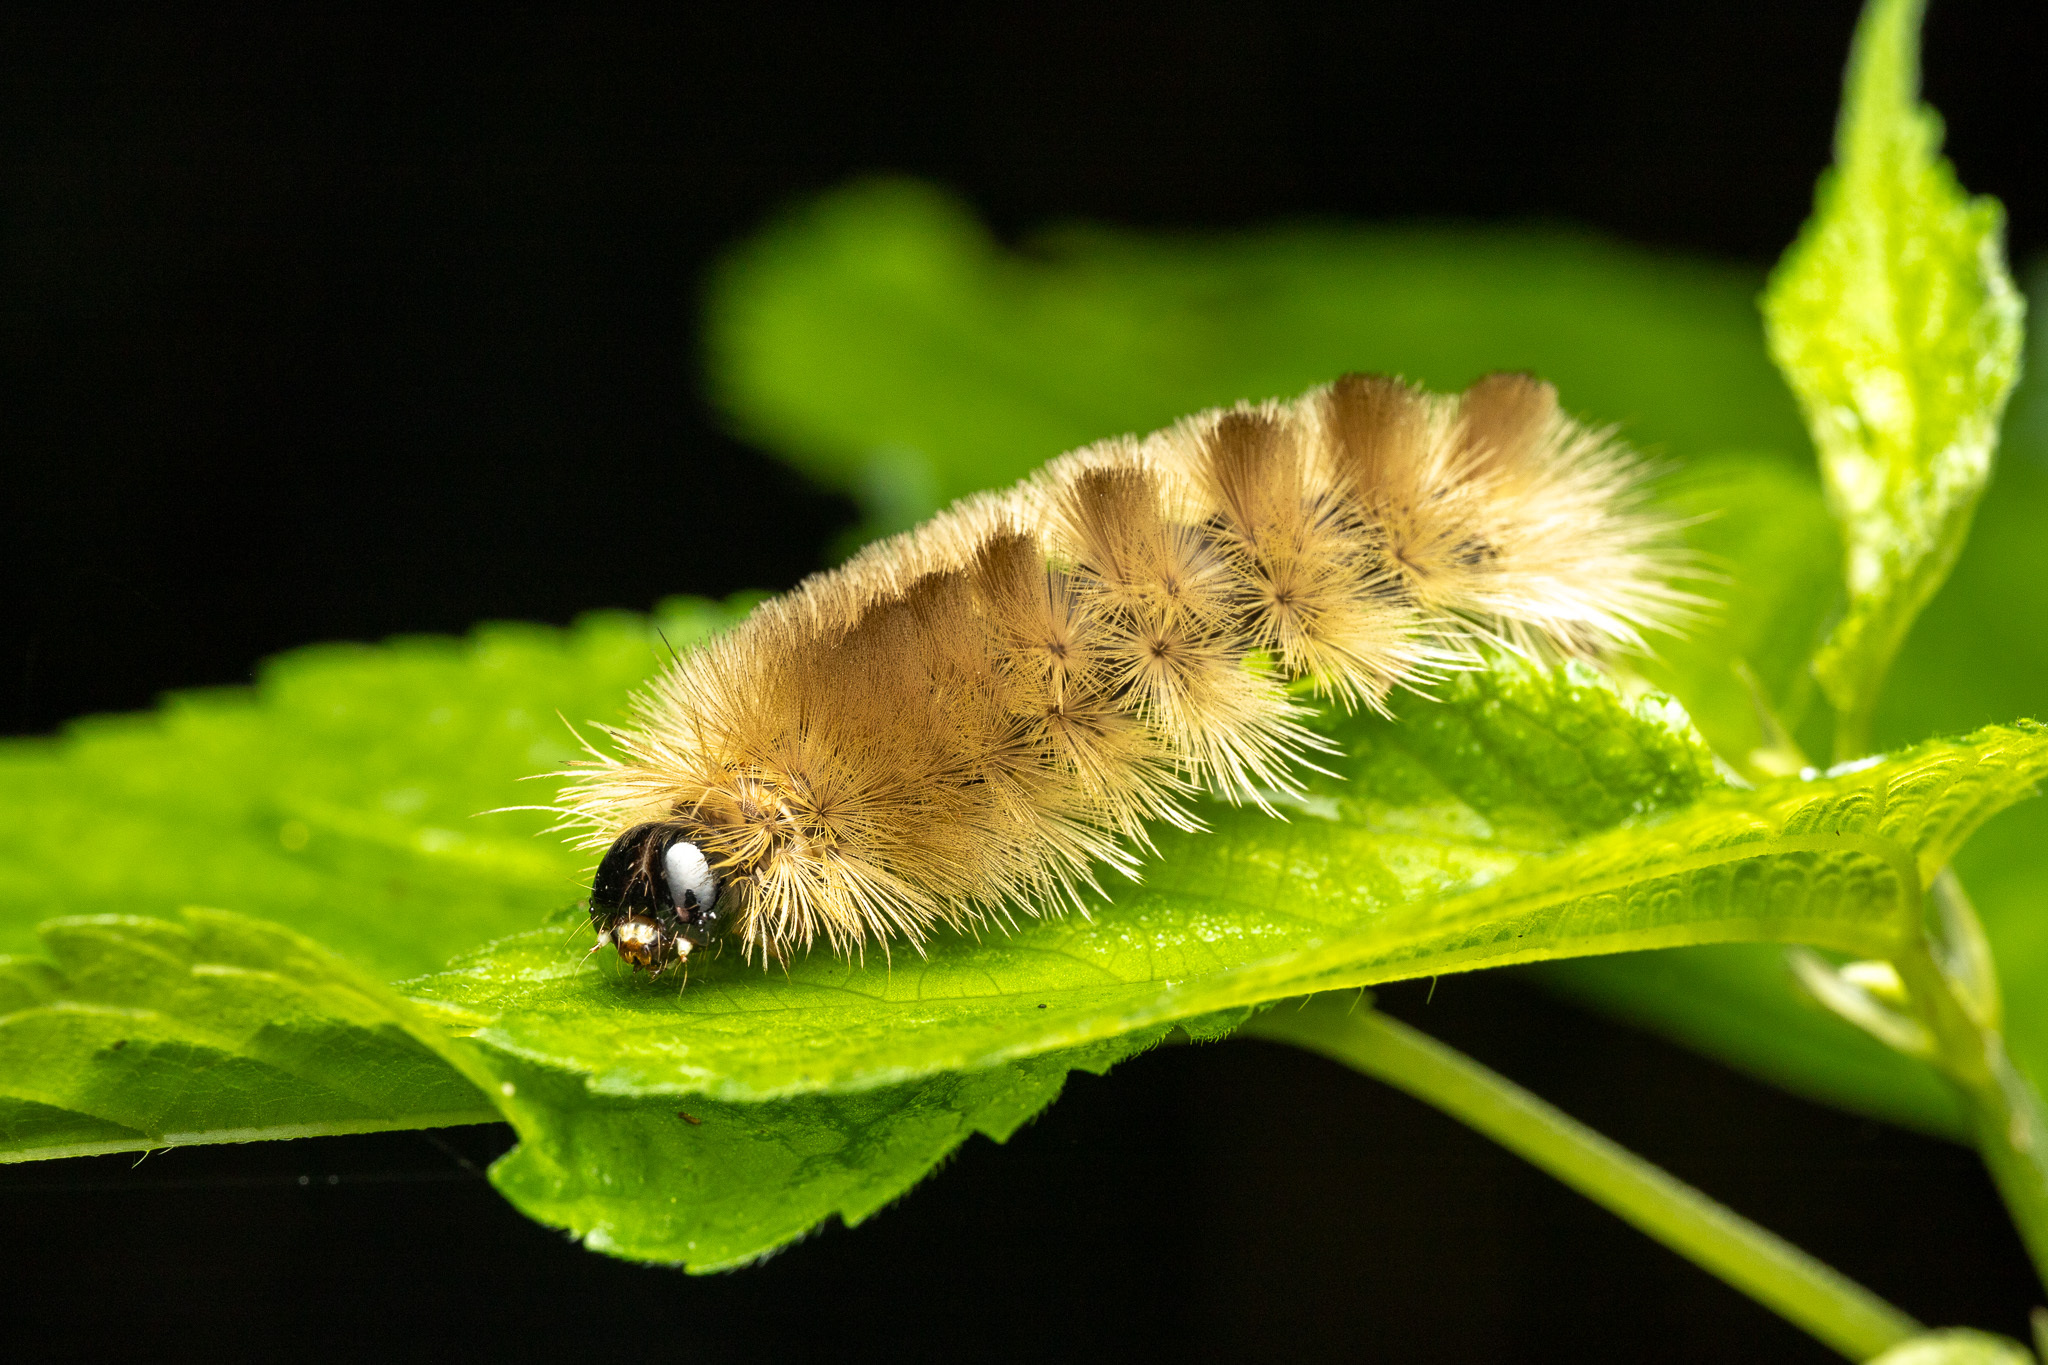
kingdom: Animalia
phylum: Arthropoda
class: Insecta
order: Lepidoptera
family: Erebidae
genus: Halysidota
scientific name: Halysidota tessellaris
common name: Banded tussock moth
